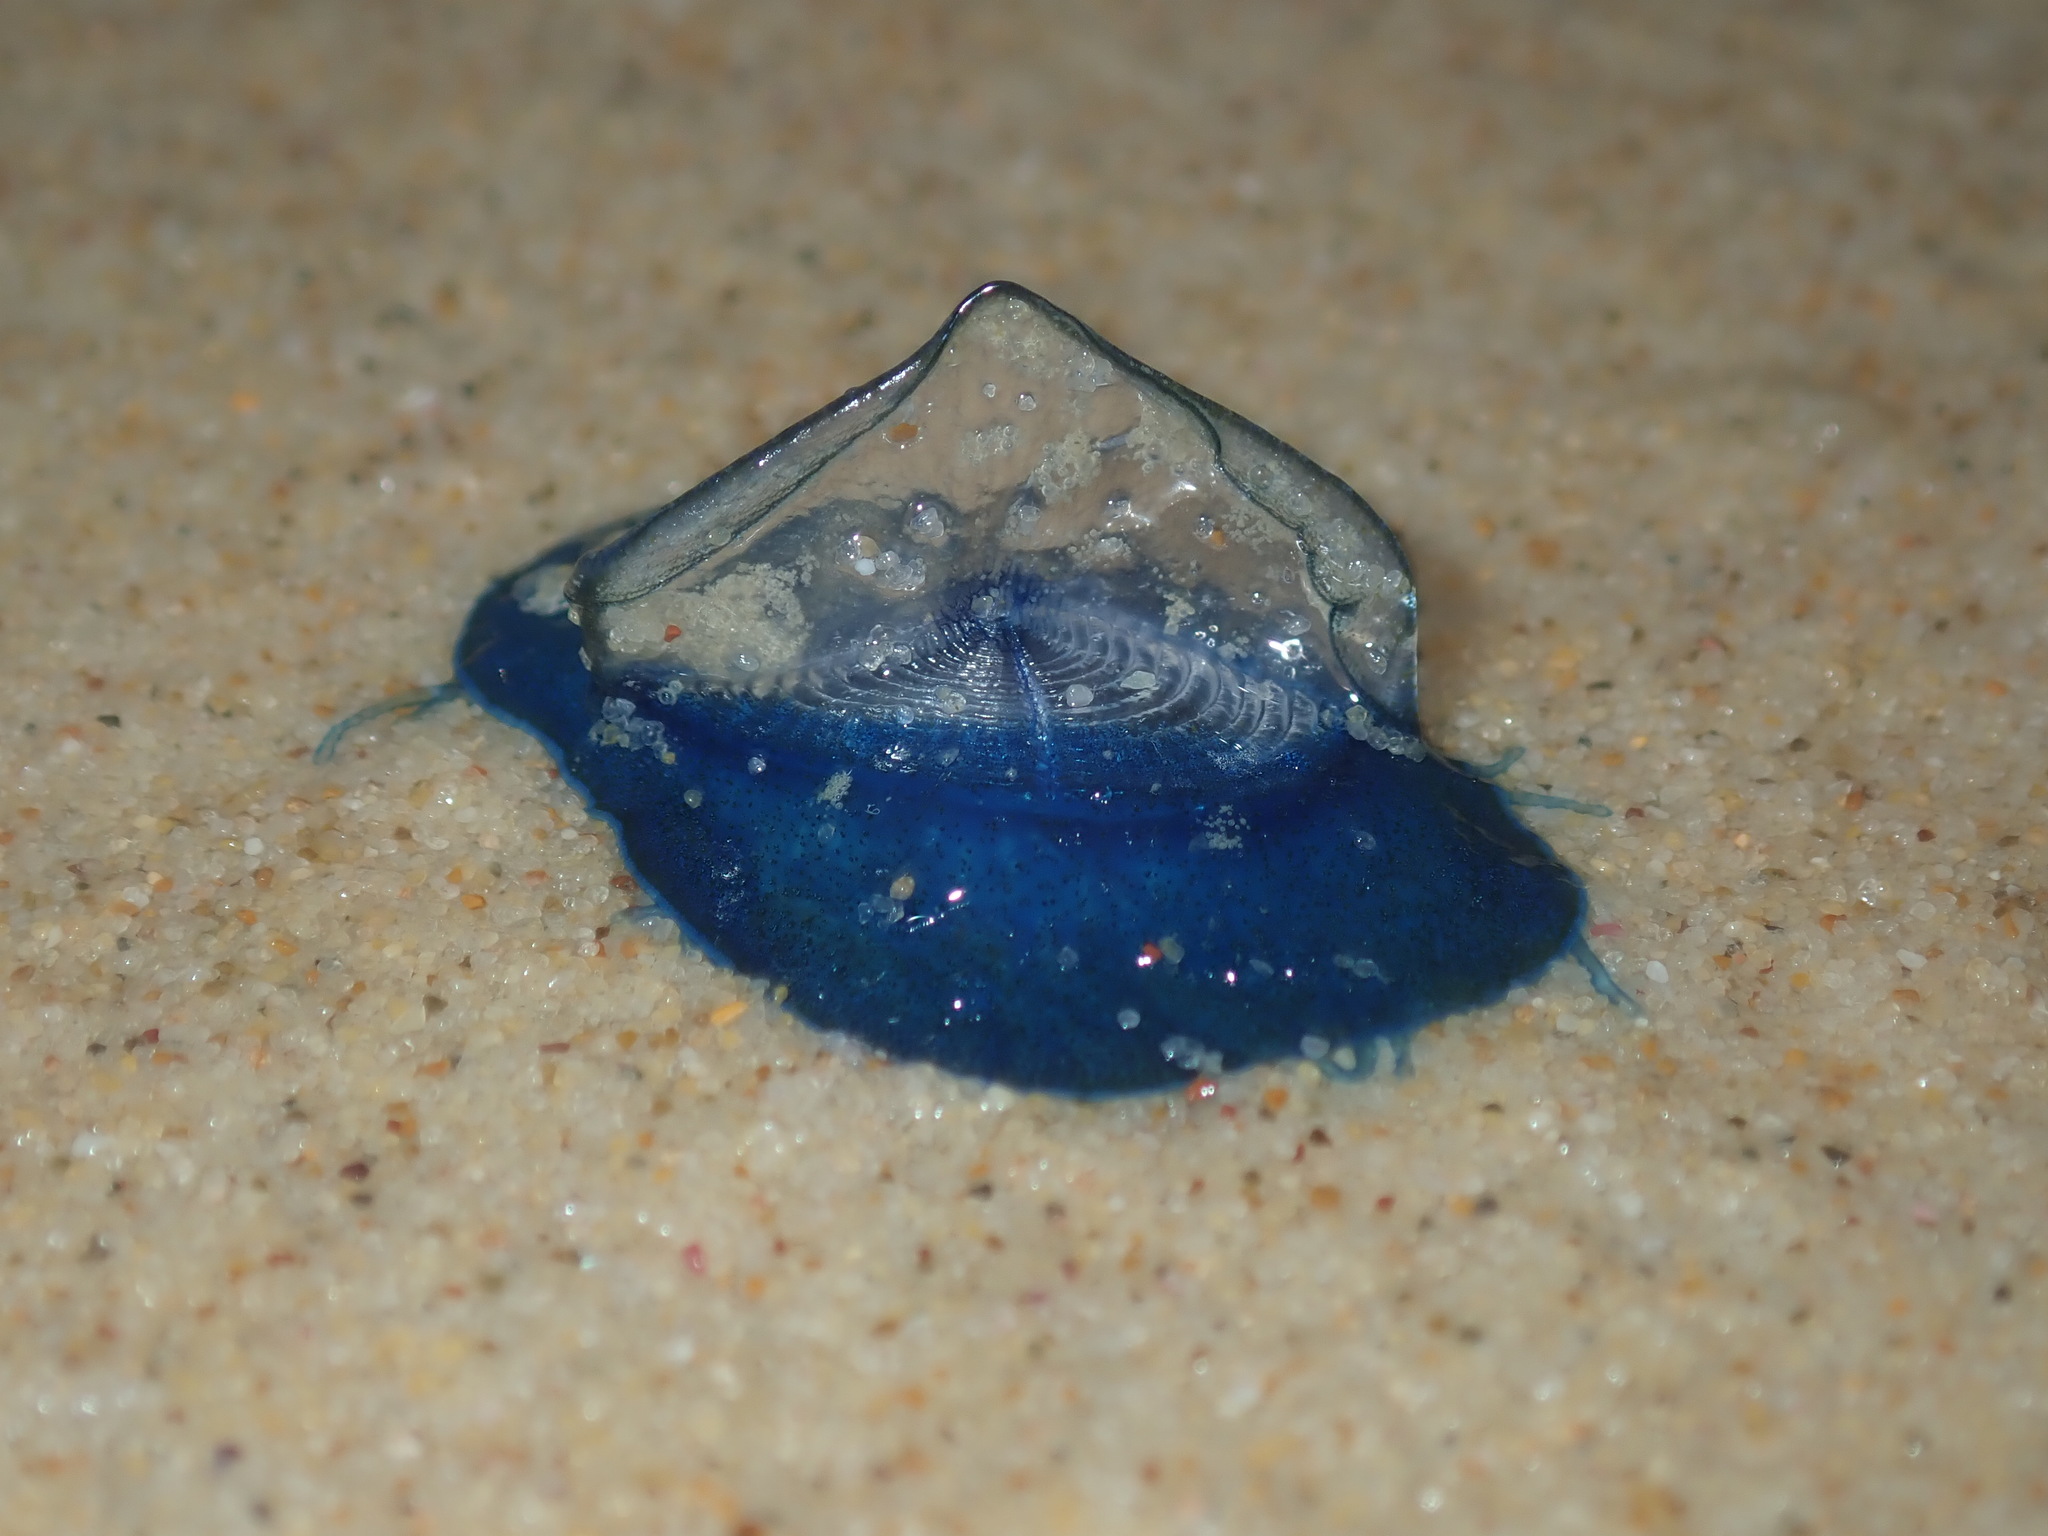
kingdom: Animalia
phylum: Cnidaria
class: Hydrozoa
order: Anthoathecata
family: Porpitidae
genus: Velella
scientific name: Velella velella
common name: By-the-wind-sailor
